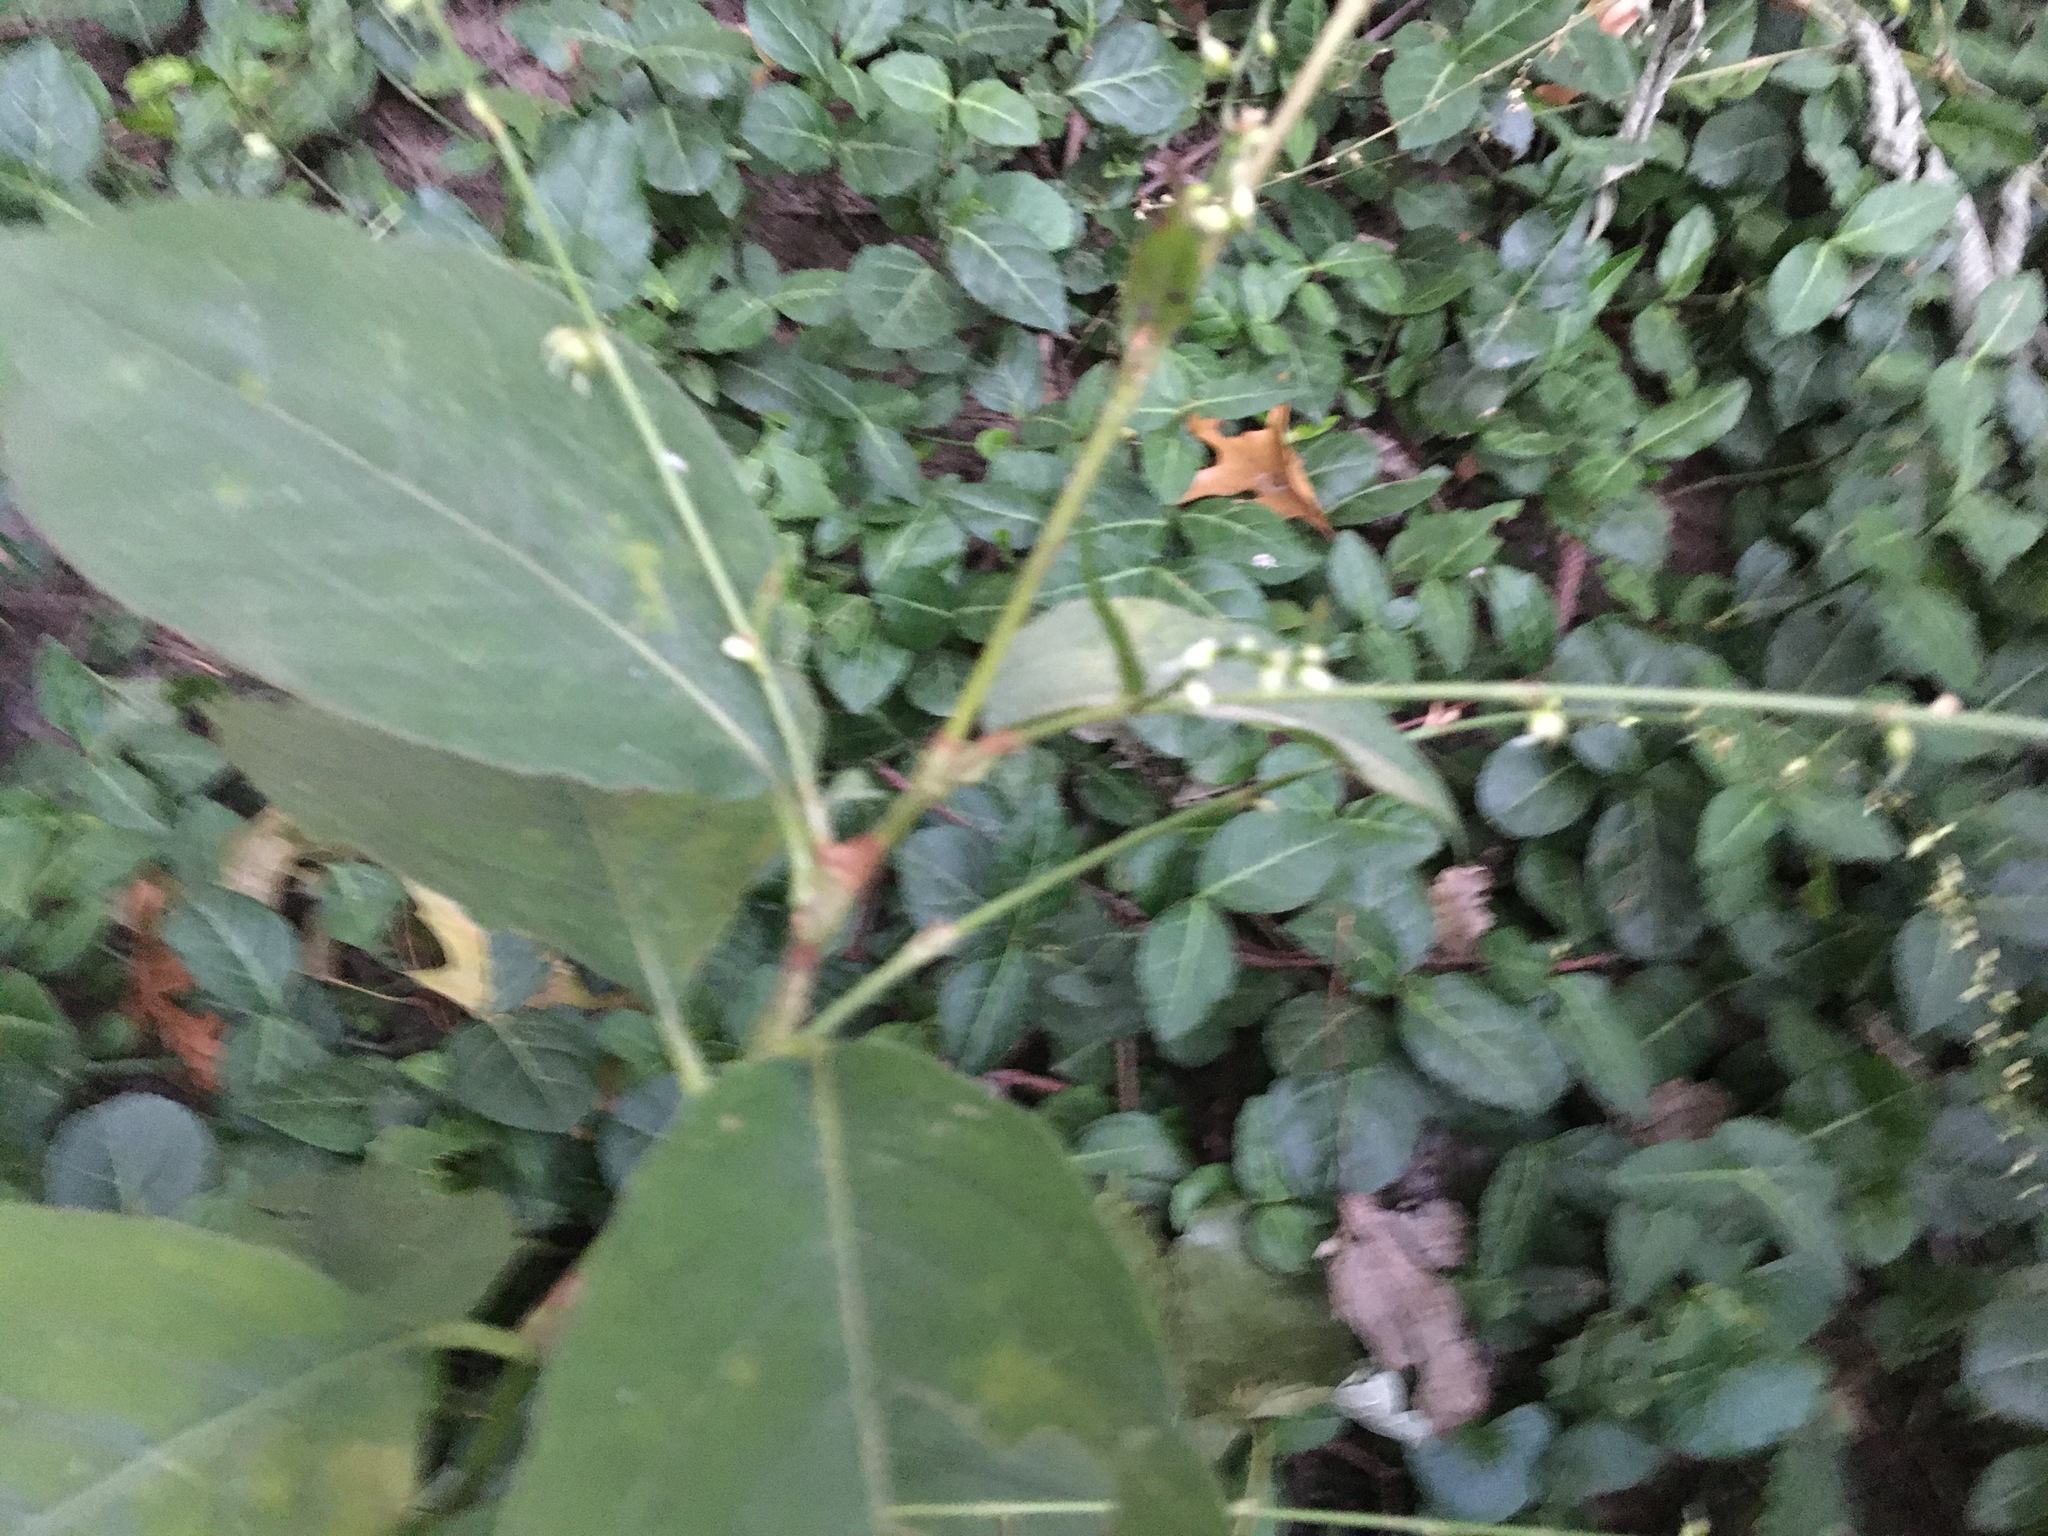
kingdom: Plantae
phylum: Tracheophyta
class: Magnoliopsida
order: Caryophyllales
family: Polygonaceae
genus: Persicaria
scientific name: Persicaria virginiana
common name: Jumpseed
